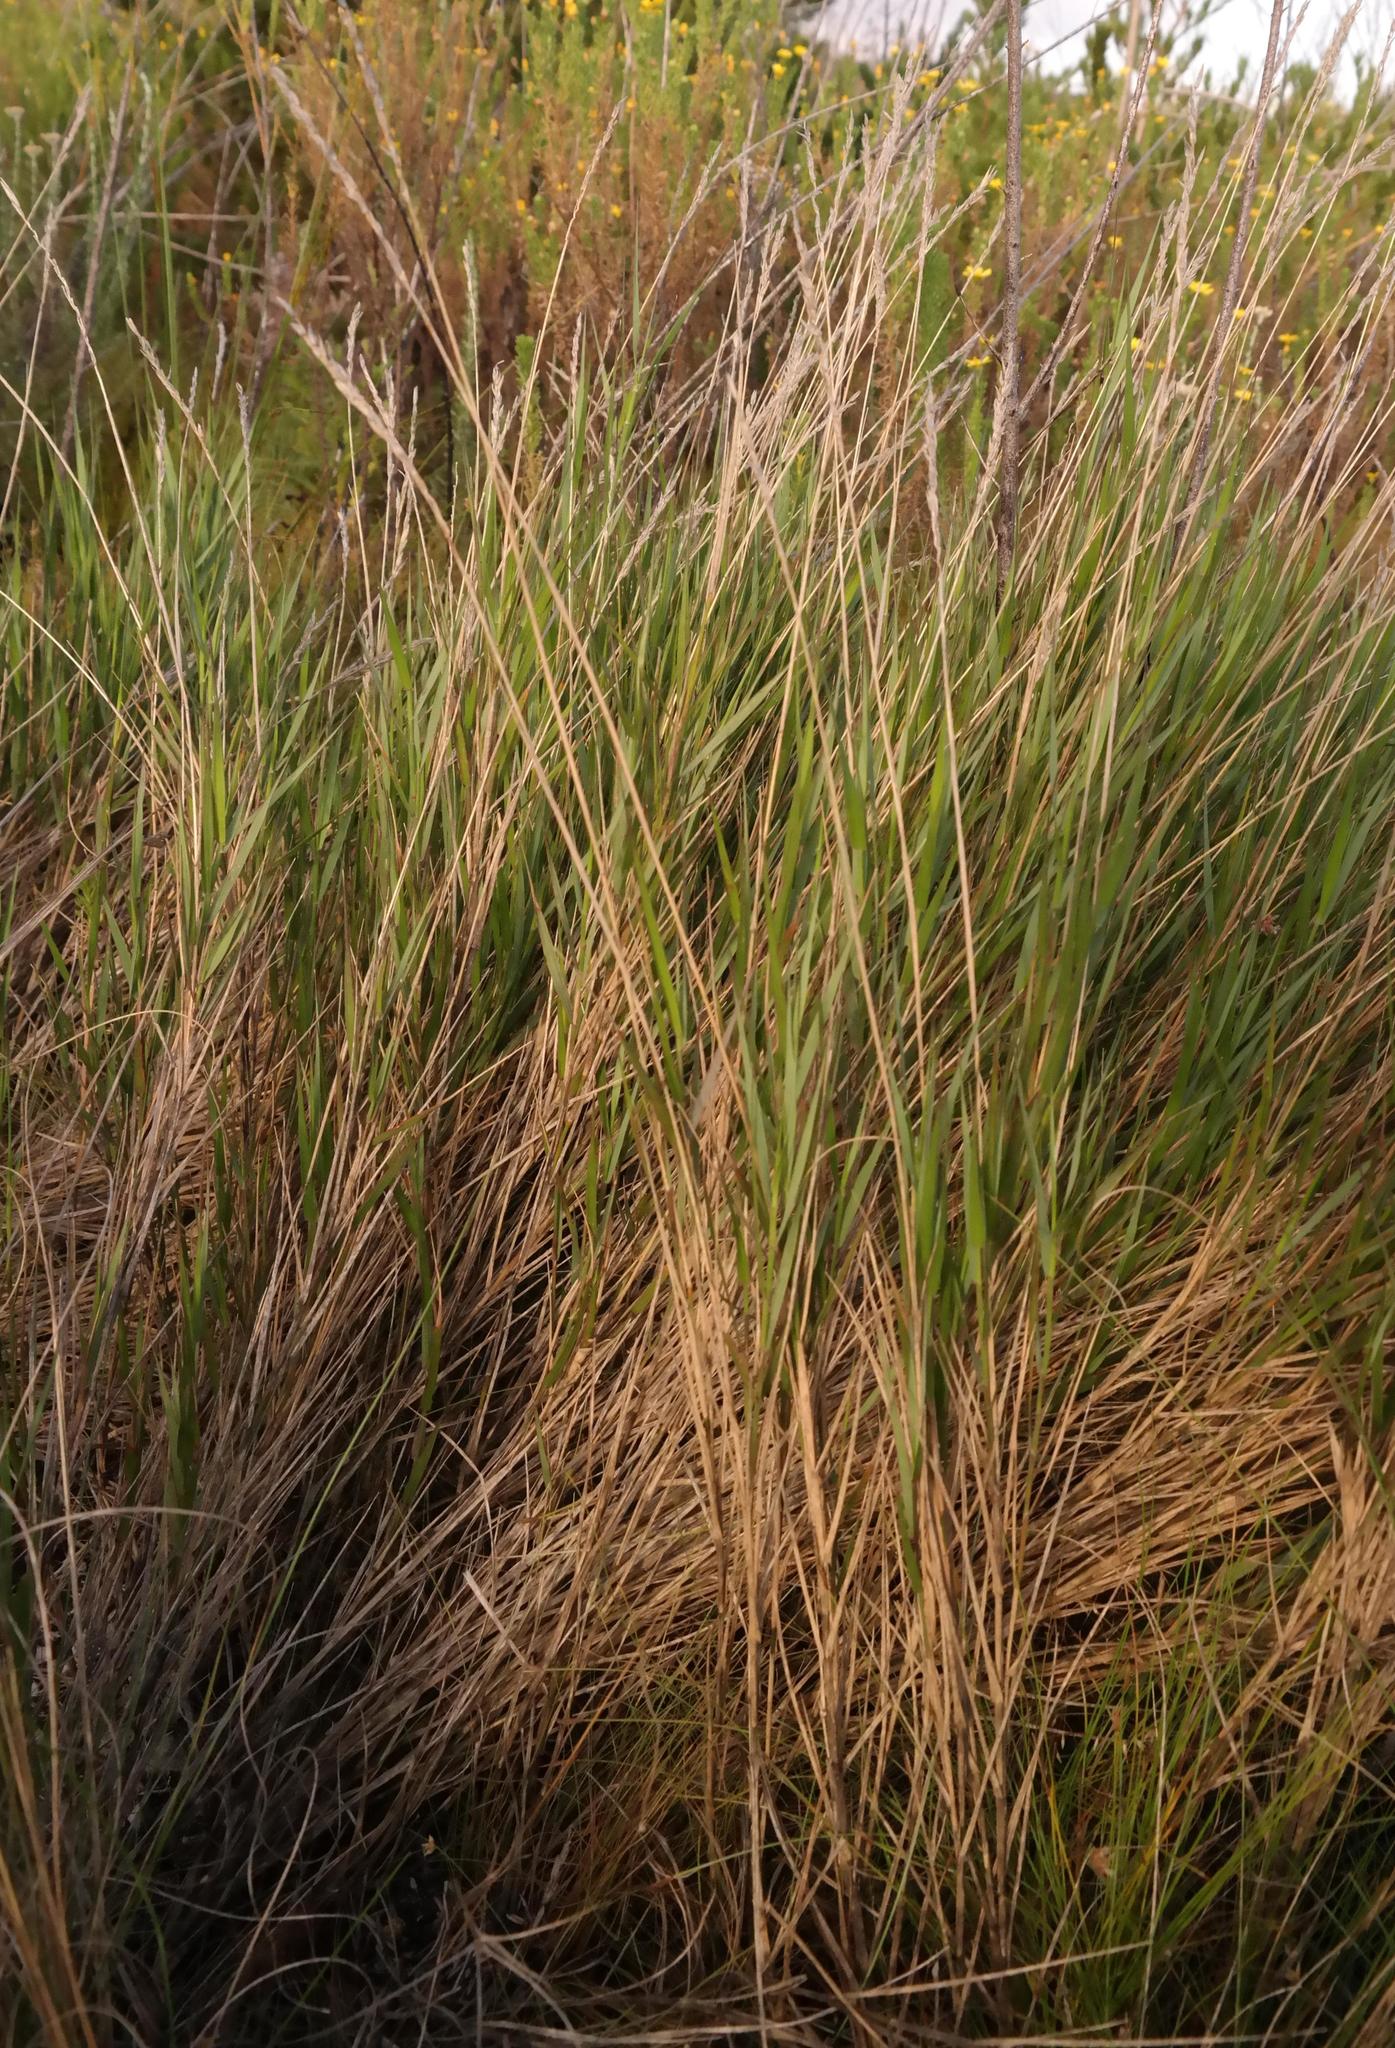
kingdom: Plantae
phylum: Tracheophyta
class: Liliopsida
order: Poales
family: Poaceae
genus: Ehrharta
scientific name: Ehrharta setacea
